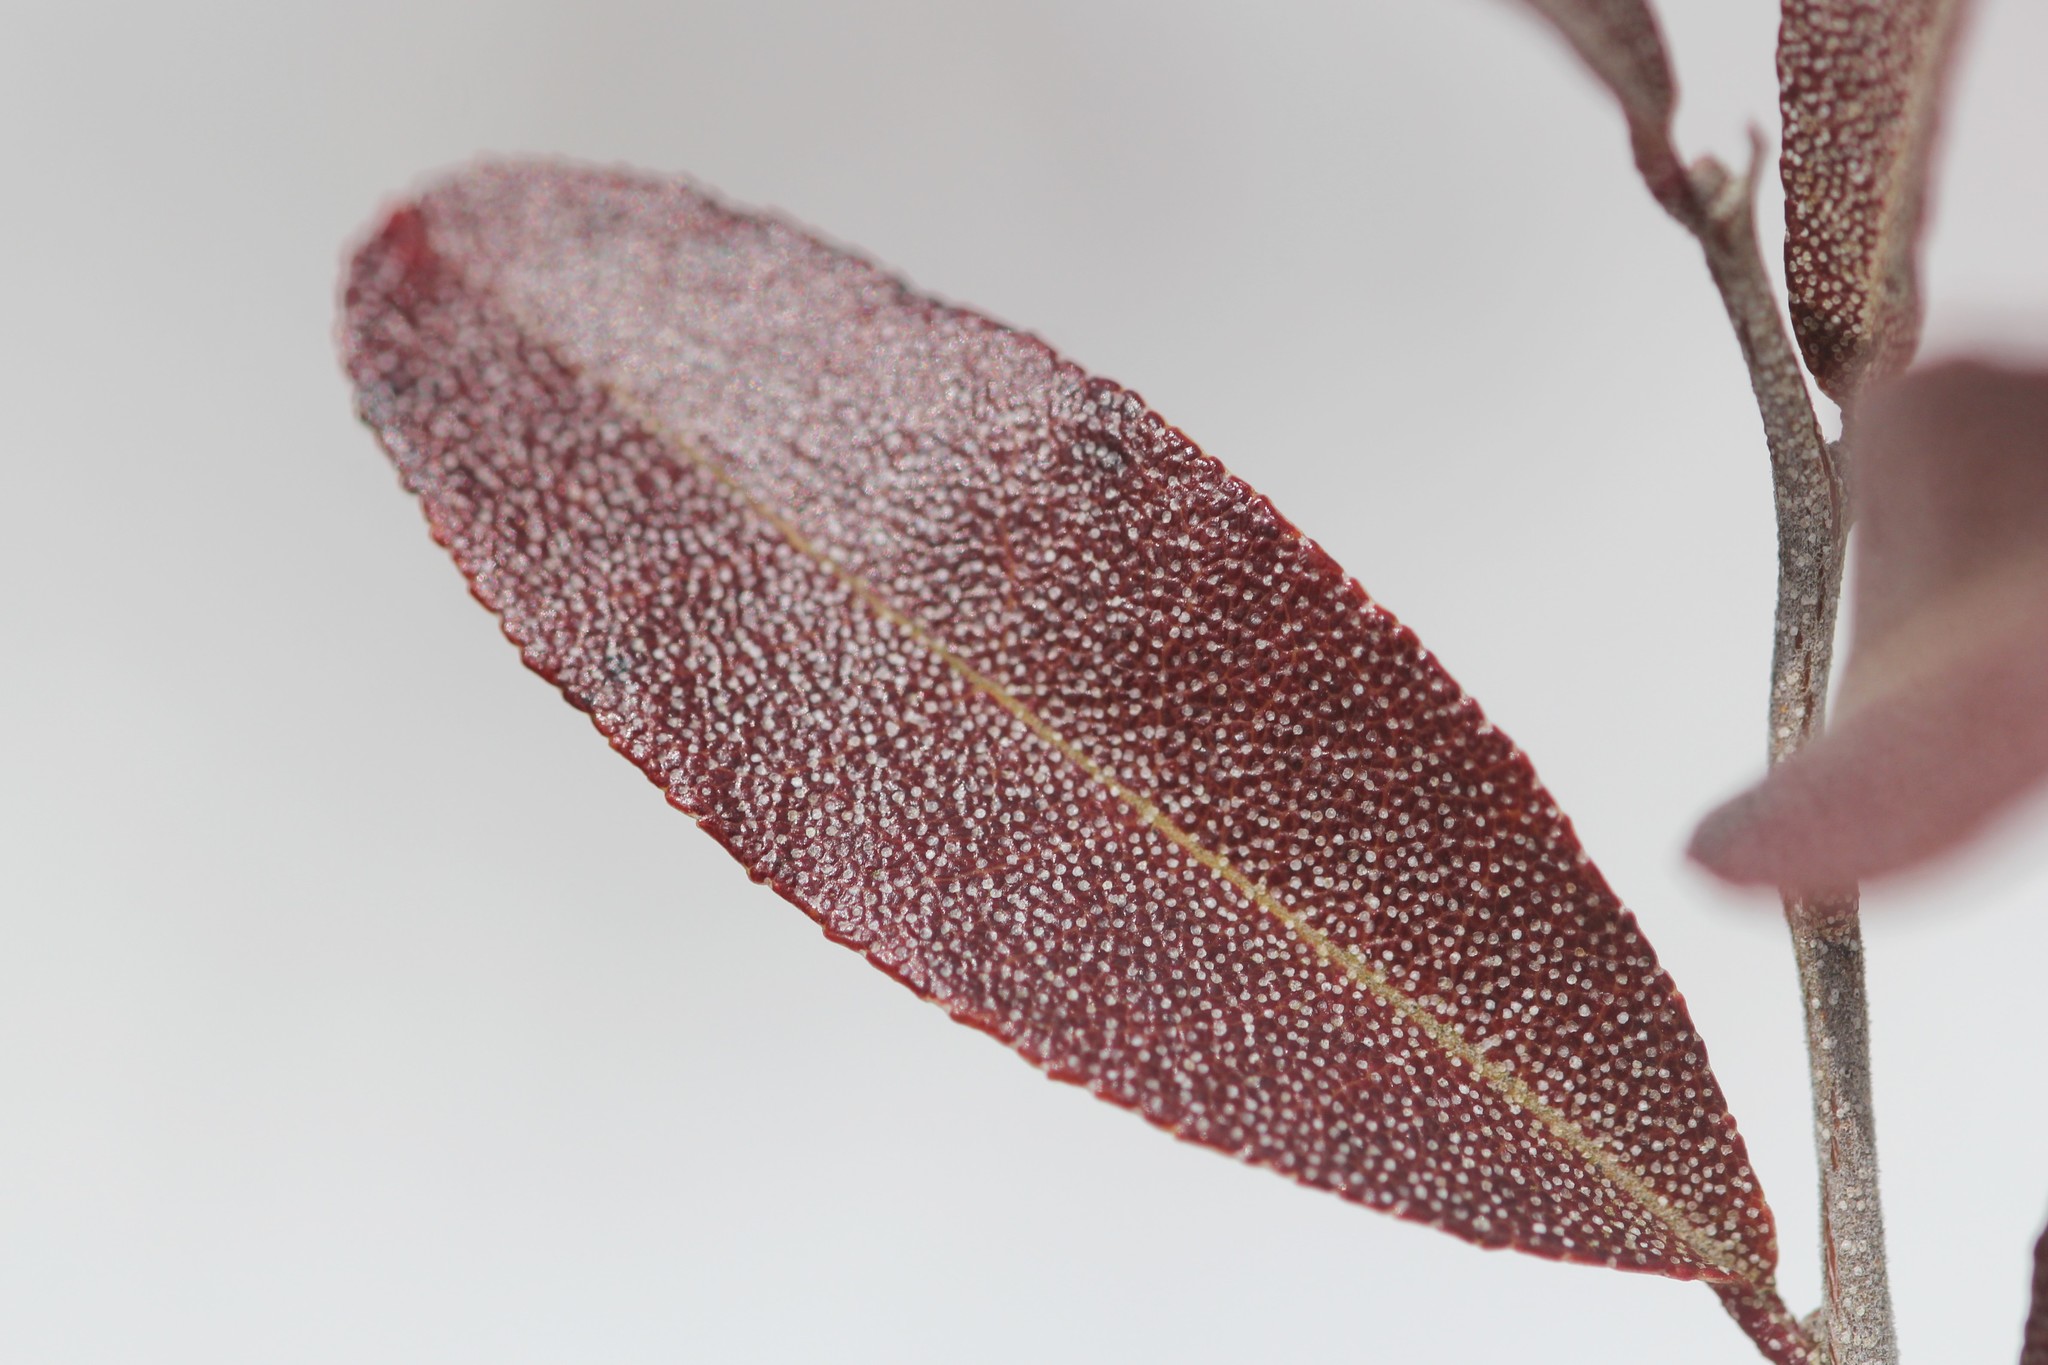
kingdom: Plantae
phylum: Tracheophyta
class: Magnoliopsida
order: Ericales
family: Ericaceae
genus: Chamaedaphne
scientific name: Chamaedaphne calyculata
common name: Leatherleaf
